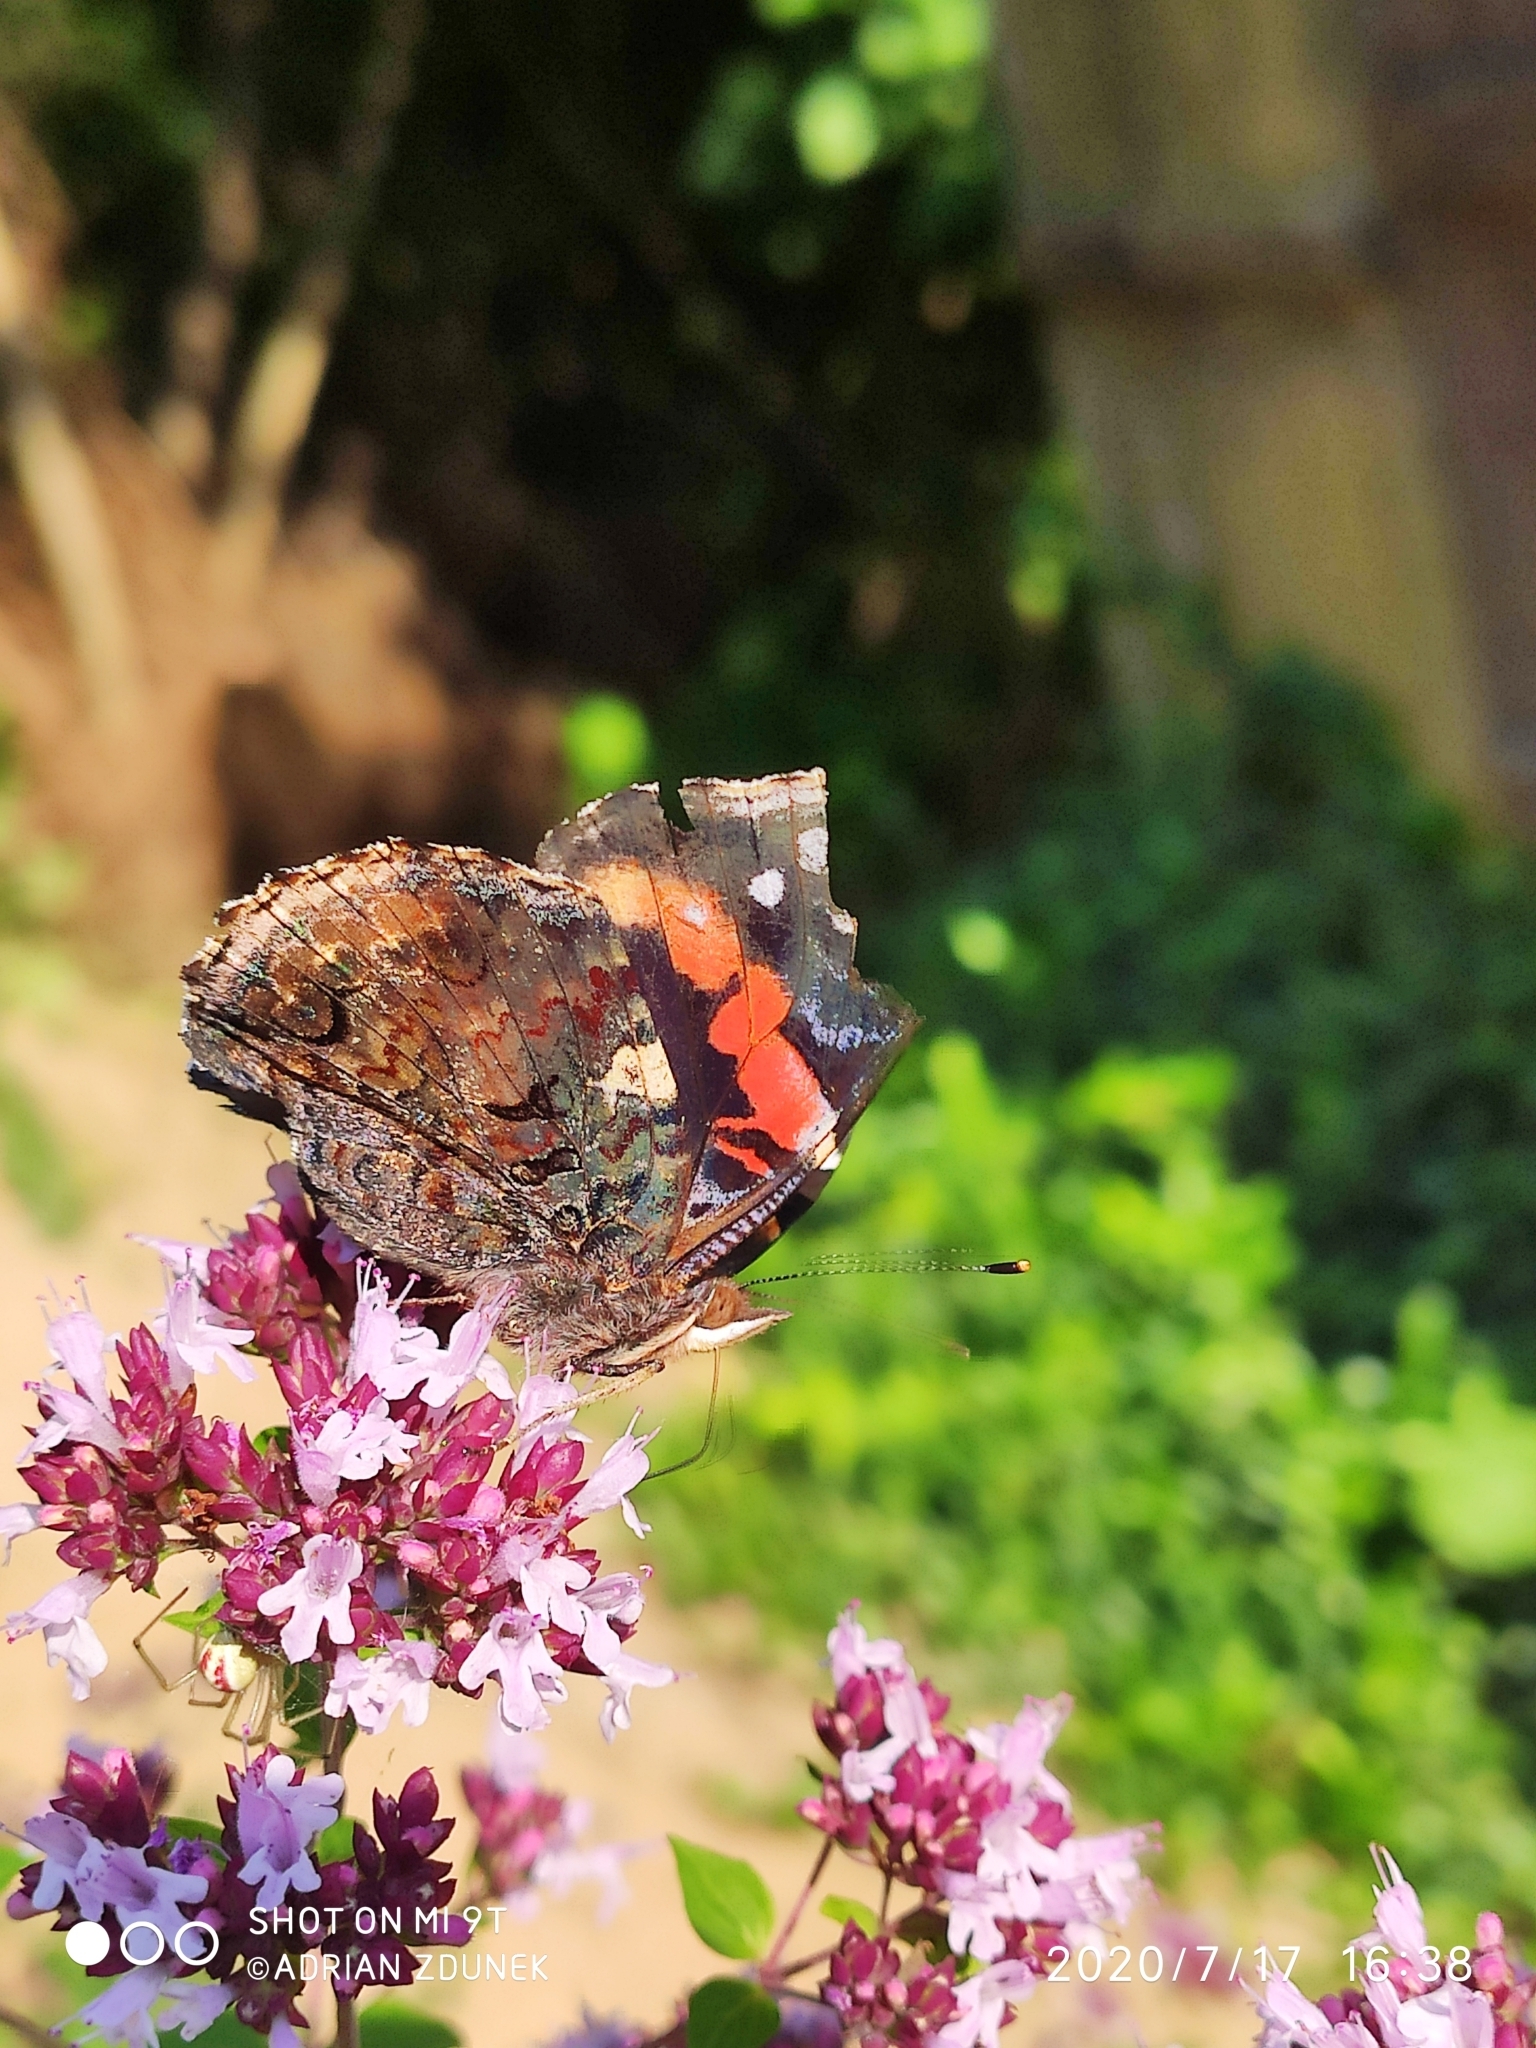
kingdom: Animalia
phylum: Arthropoda
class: Insecta
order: Lepidoptera
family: Nymphalidae
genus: Vanessa
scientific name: Vanessa atalanta
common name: Red admiral
